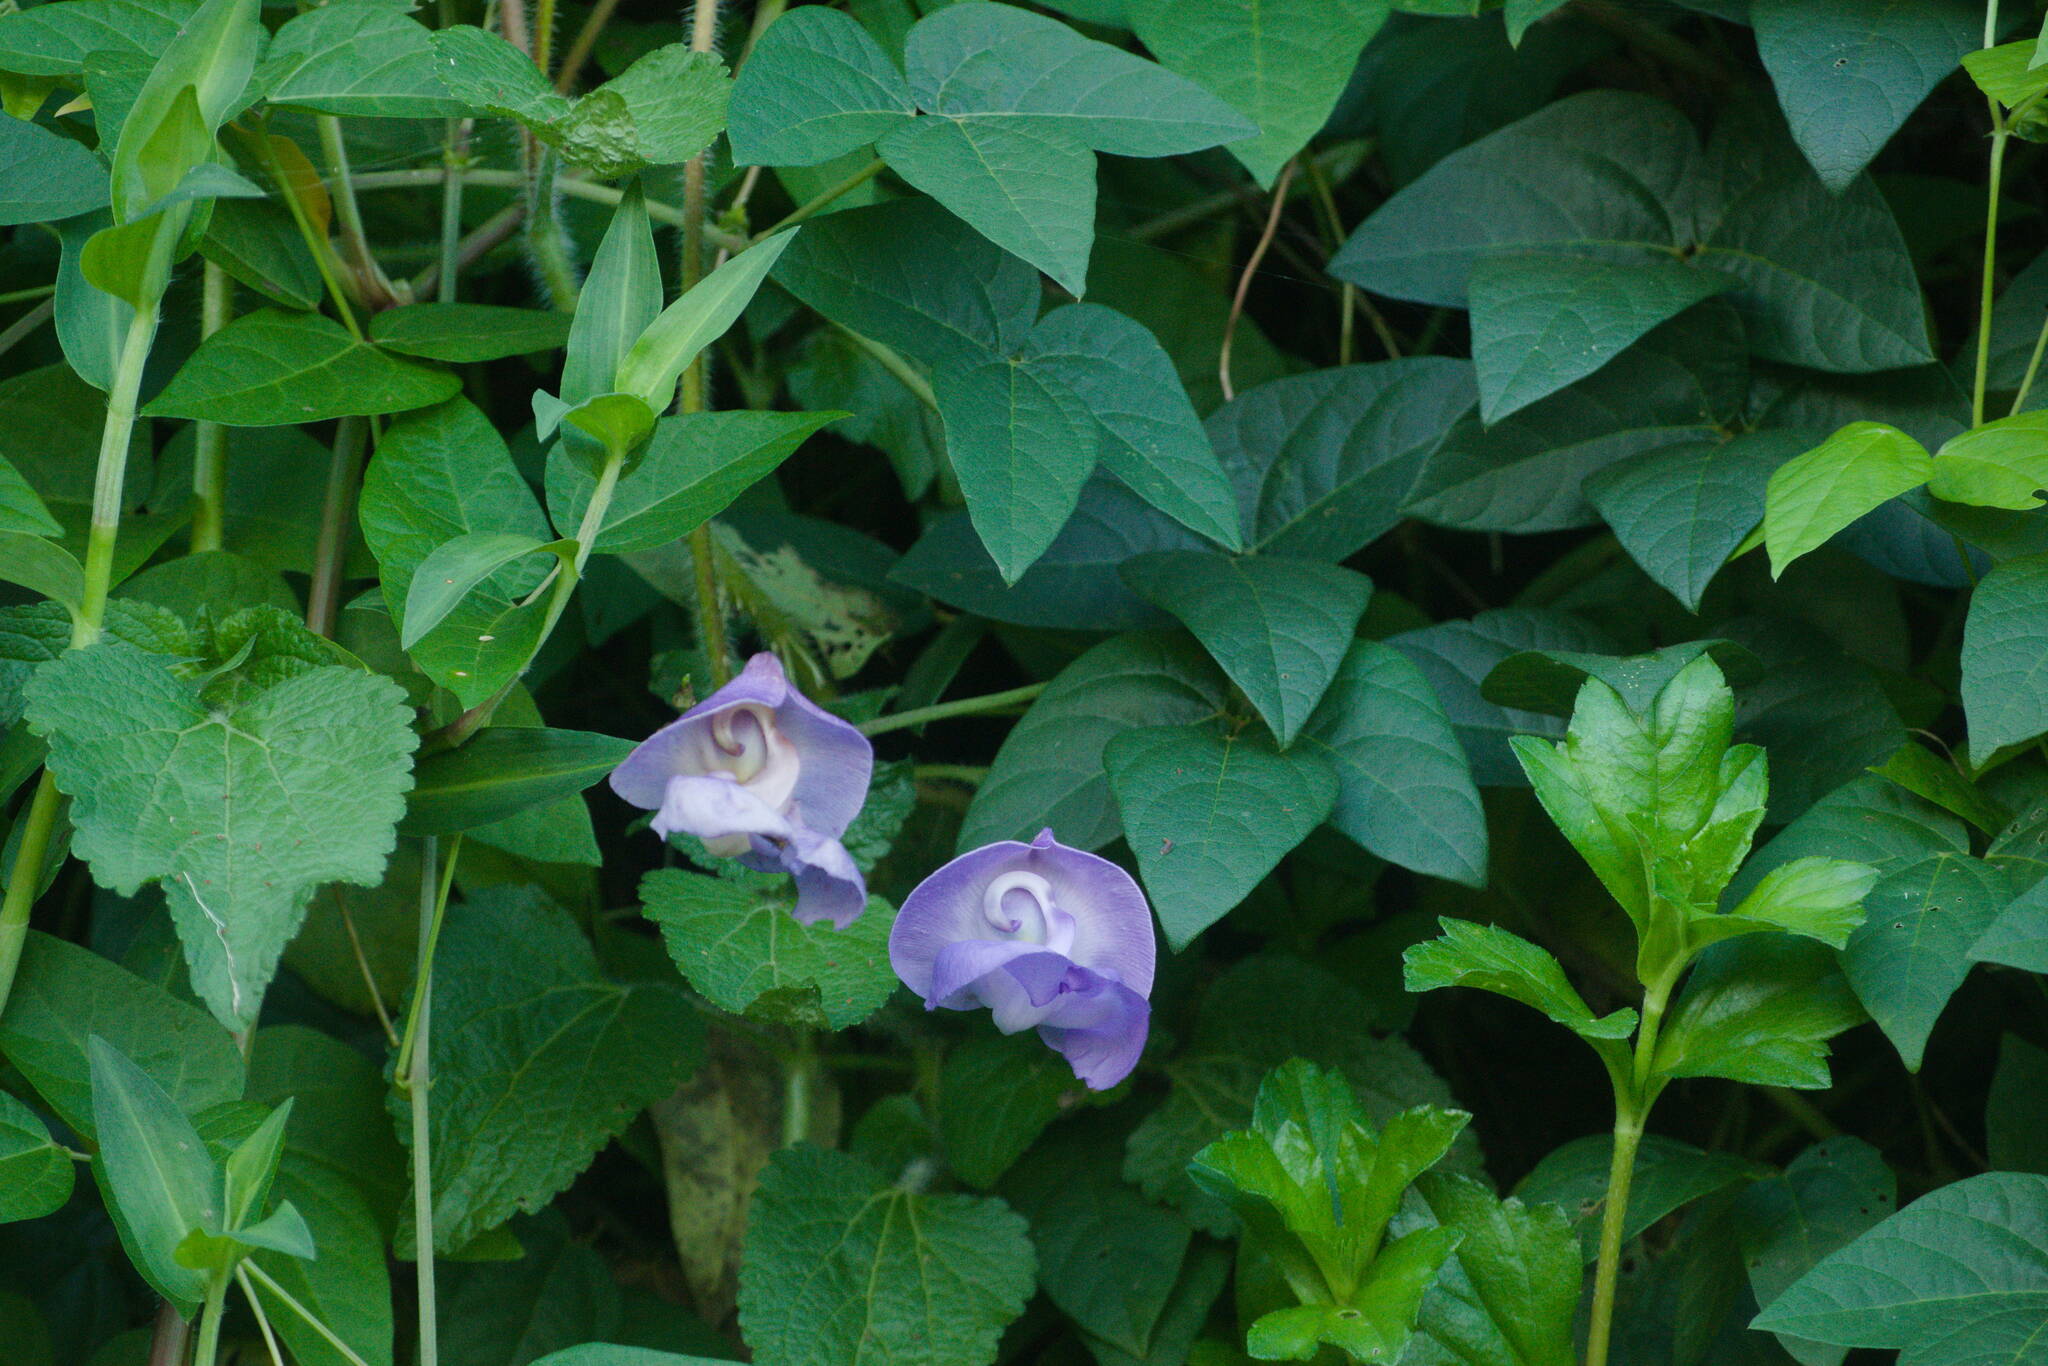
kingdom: Plantae
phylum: Tracheophyta
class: Magnoliopsida
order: Fabales
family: Fabaceae
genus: Leptospron
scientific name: Leptospron adenanthum
